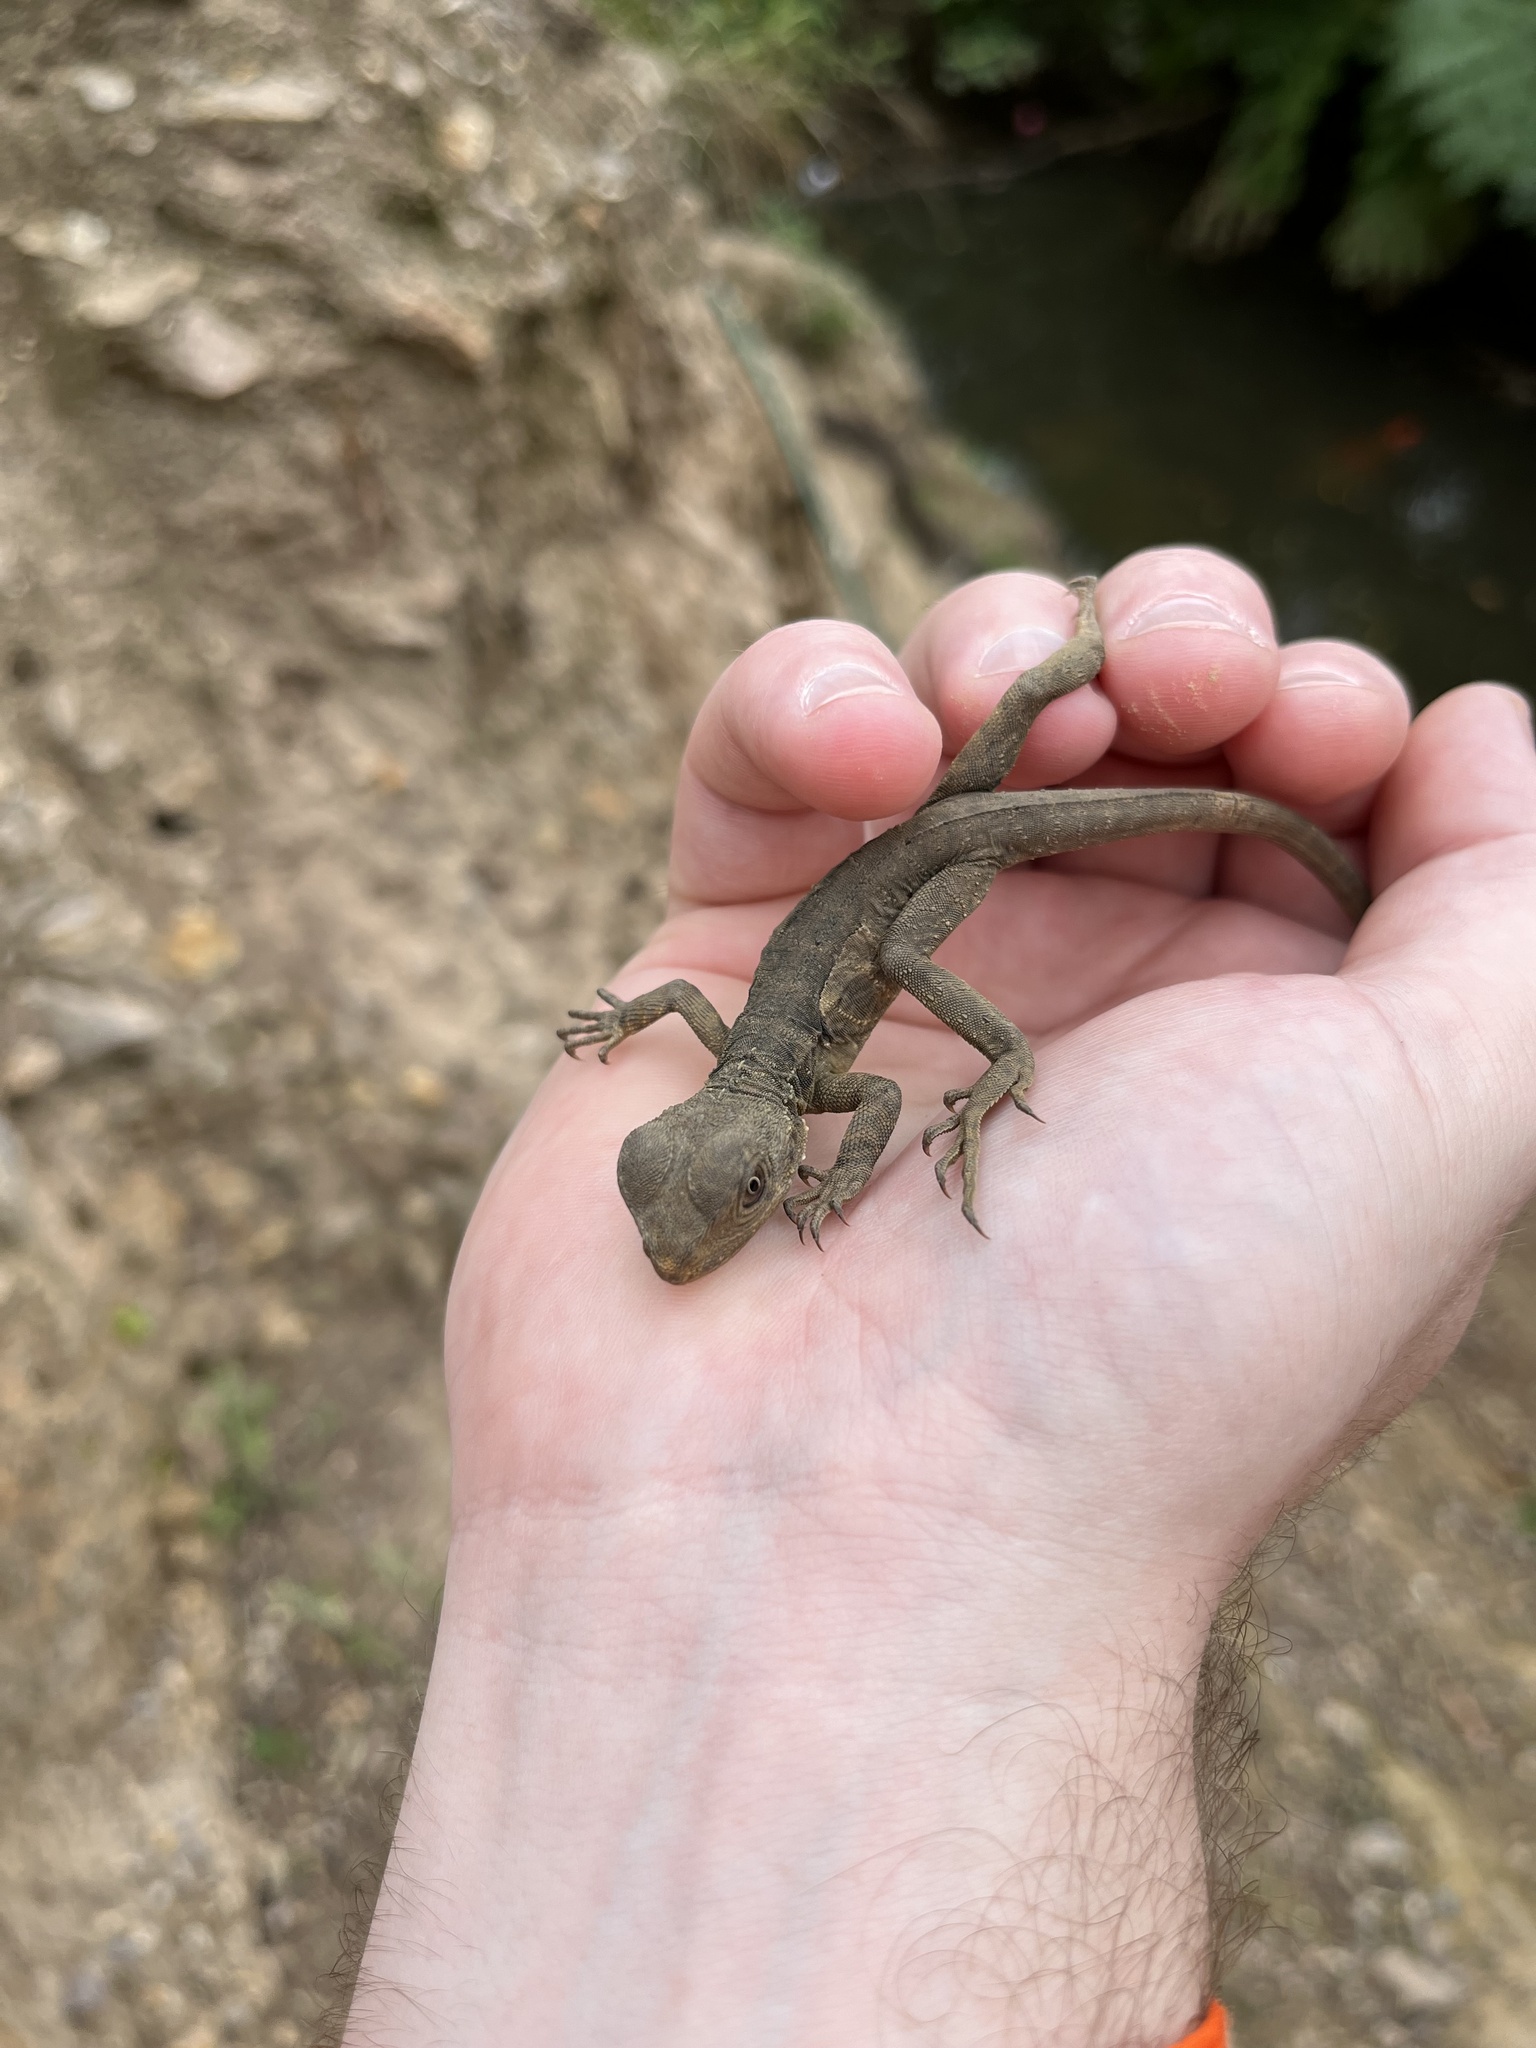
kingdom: Animalia
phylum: Chordata
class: Squamata
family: Agamidae
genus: Intellagama
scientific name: Intellagama lesueurii
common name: Eastern water dragon
